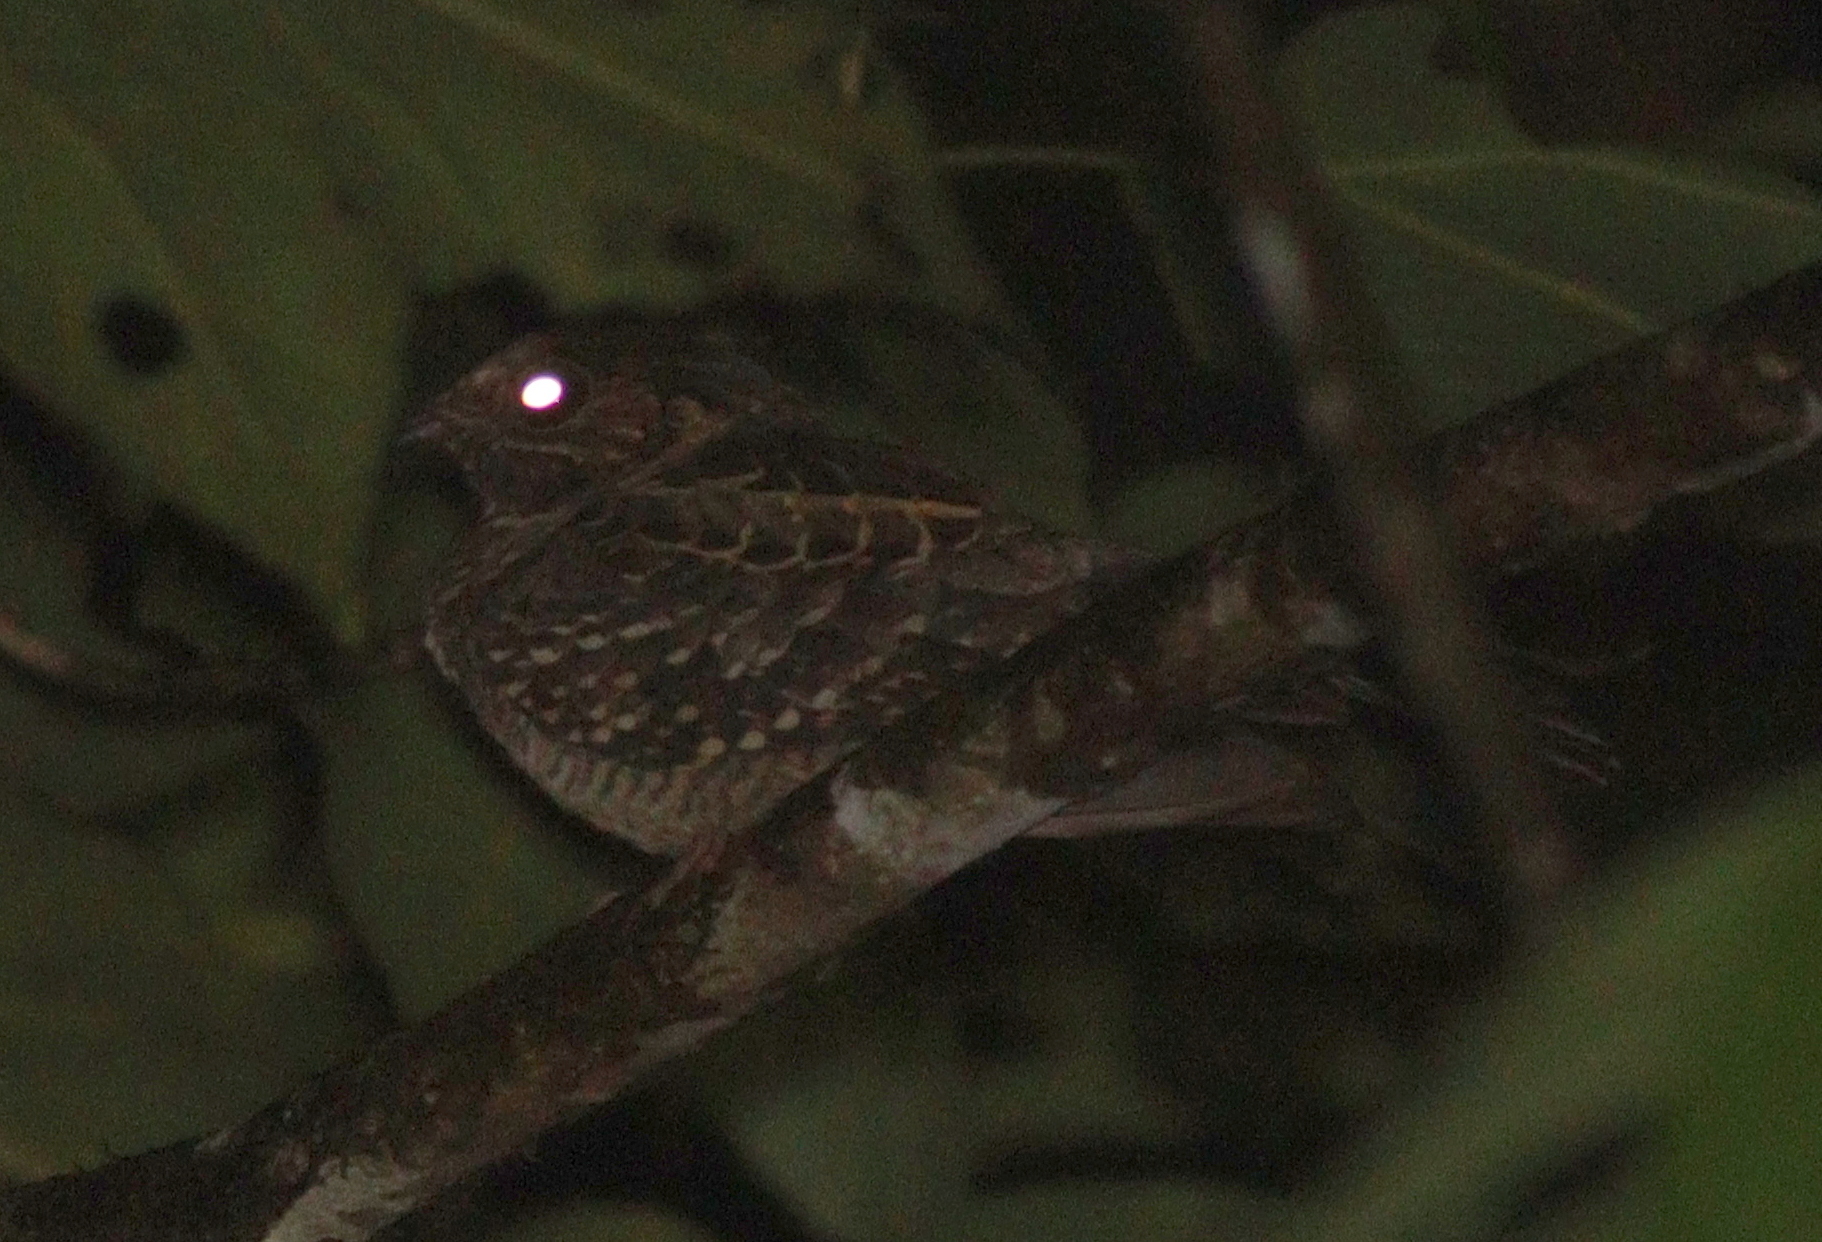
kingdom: Animalia
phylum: Chordata
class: Aves
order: Caprimulgiformes
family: Caprimulgidae
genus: Nyctidromus
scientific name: Nyctidromus albicollis
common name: Pauraque
